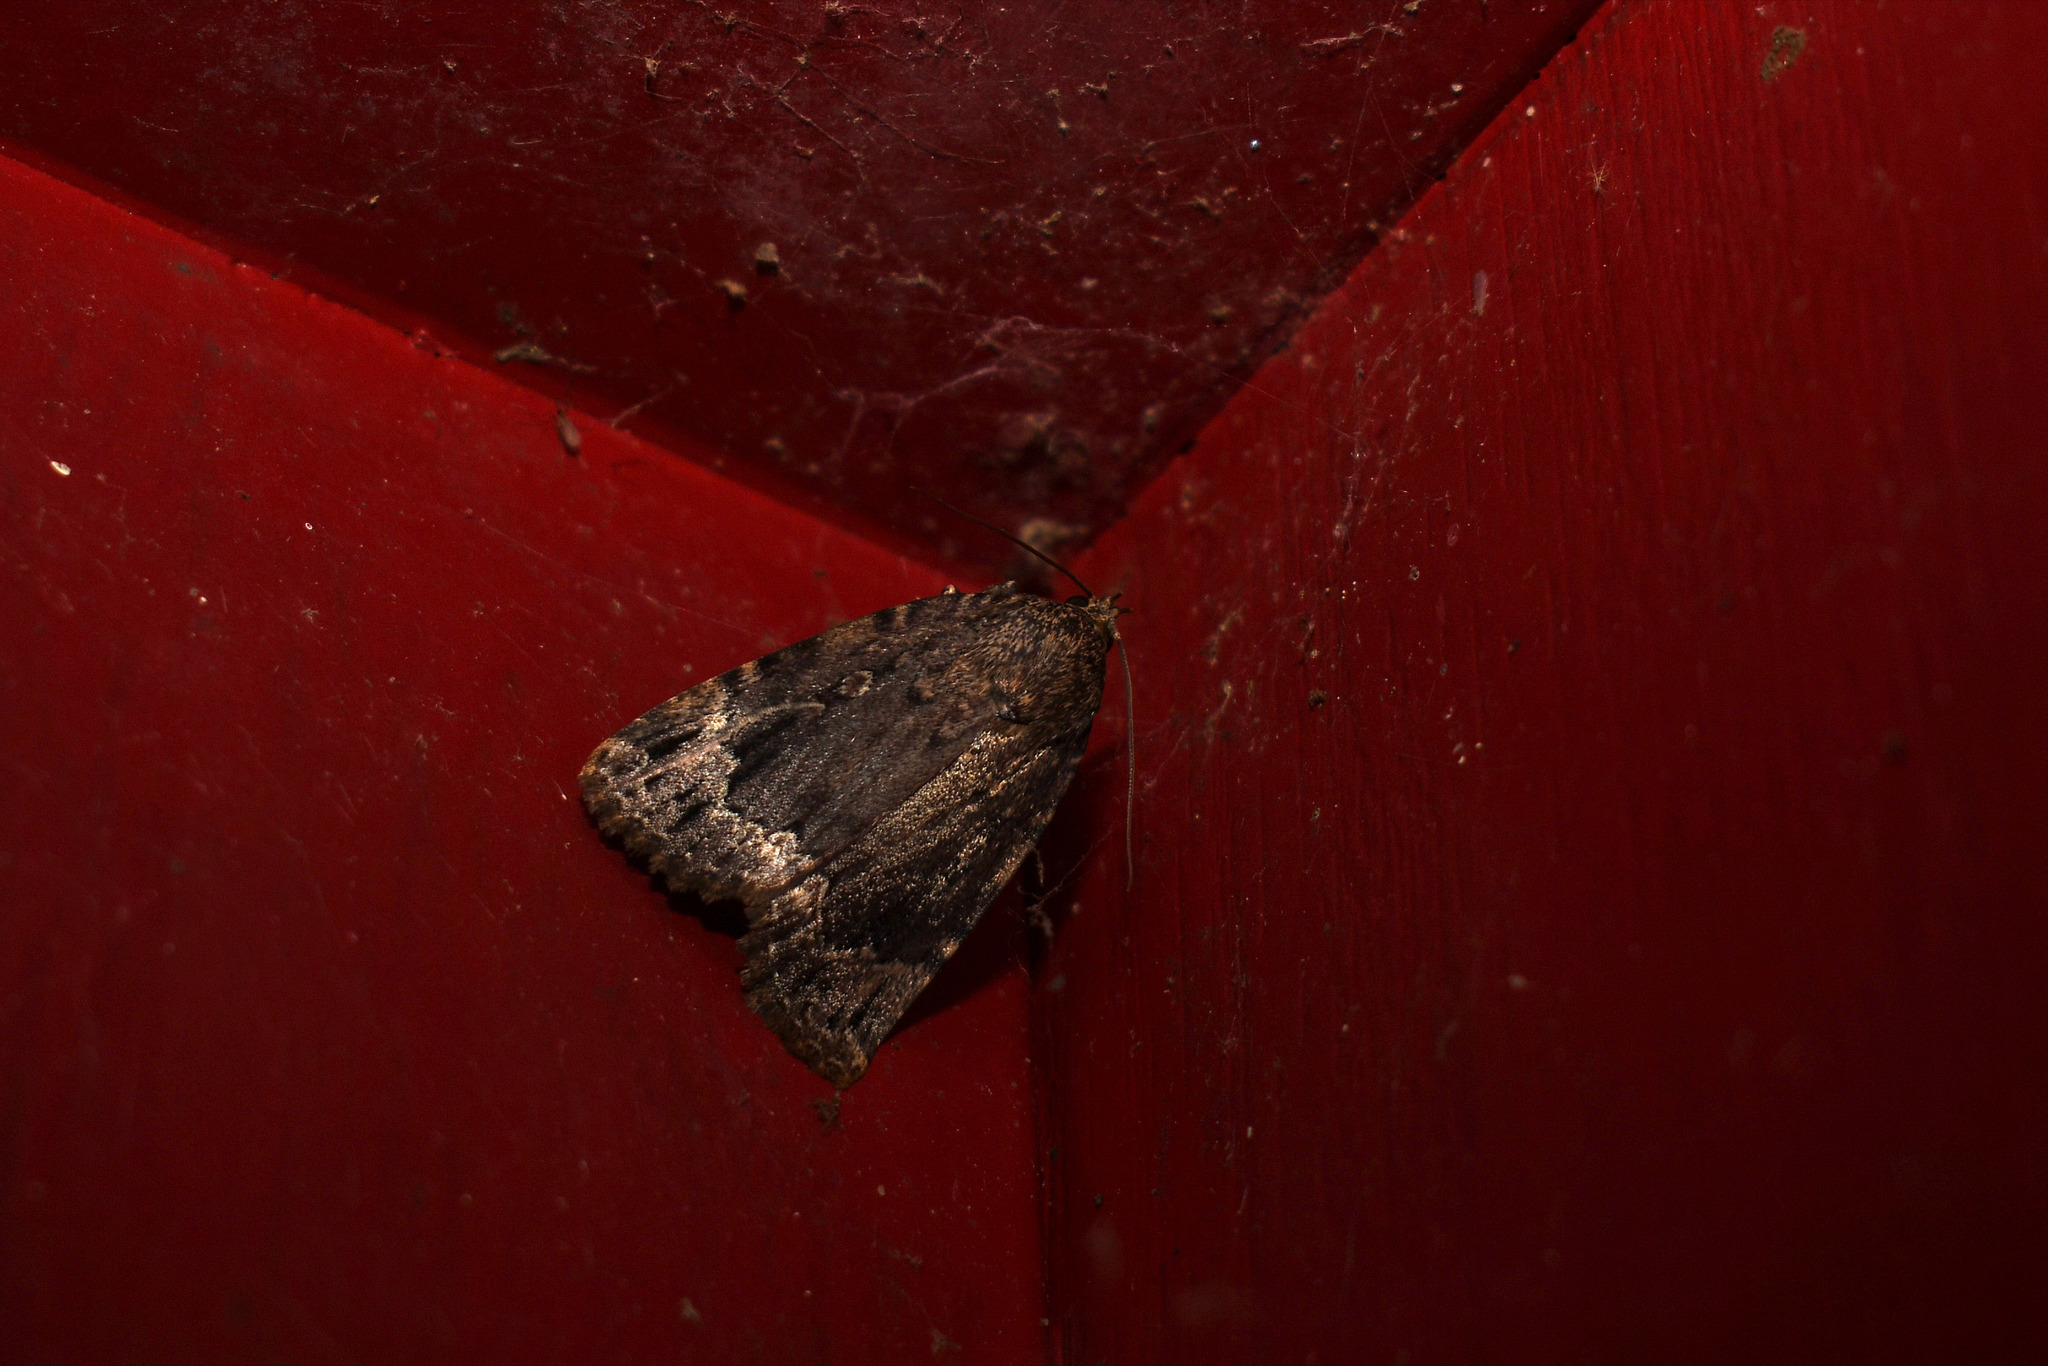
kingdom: Animalia
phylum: Arthropoda
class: Insecta
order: Lepidoptera
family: Noctuidae
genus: Amphipyra
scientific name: Amphipyra pyramidoides
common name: American copper underwing
